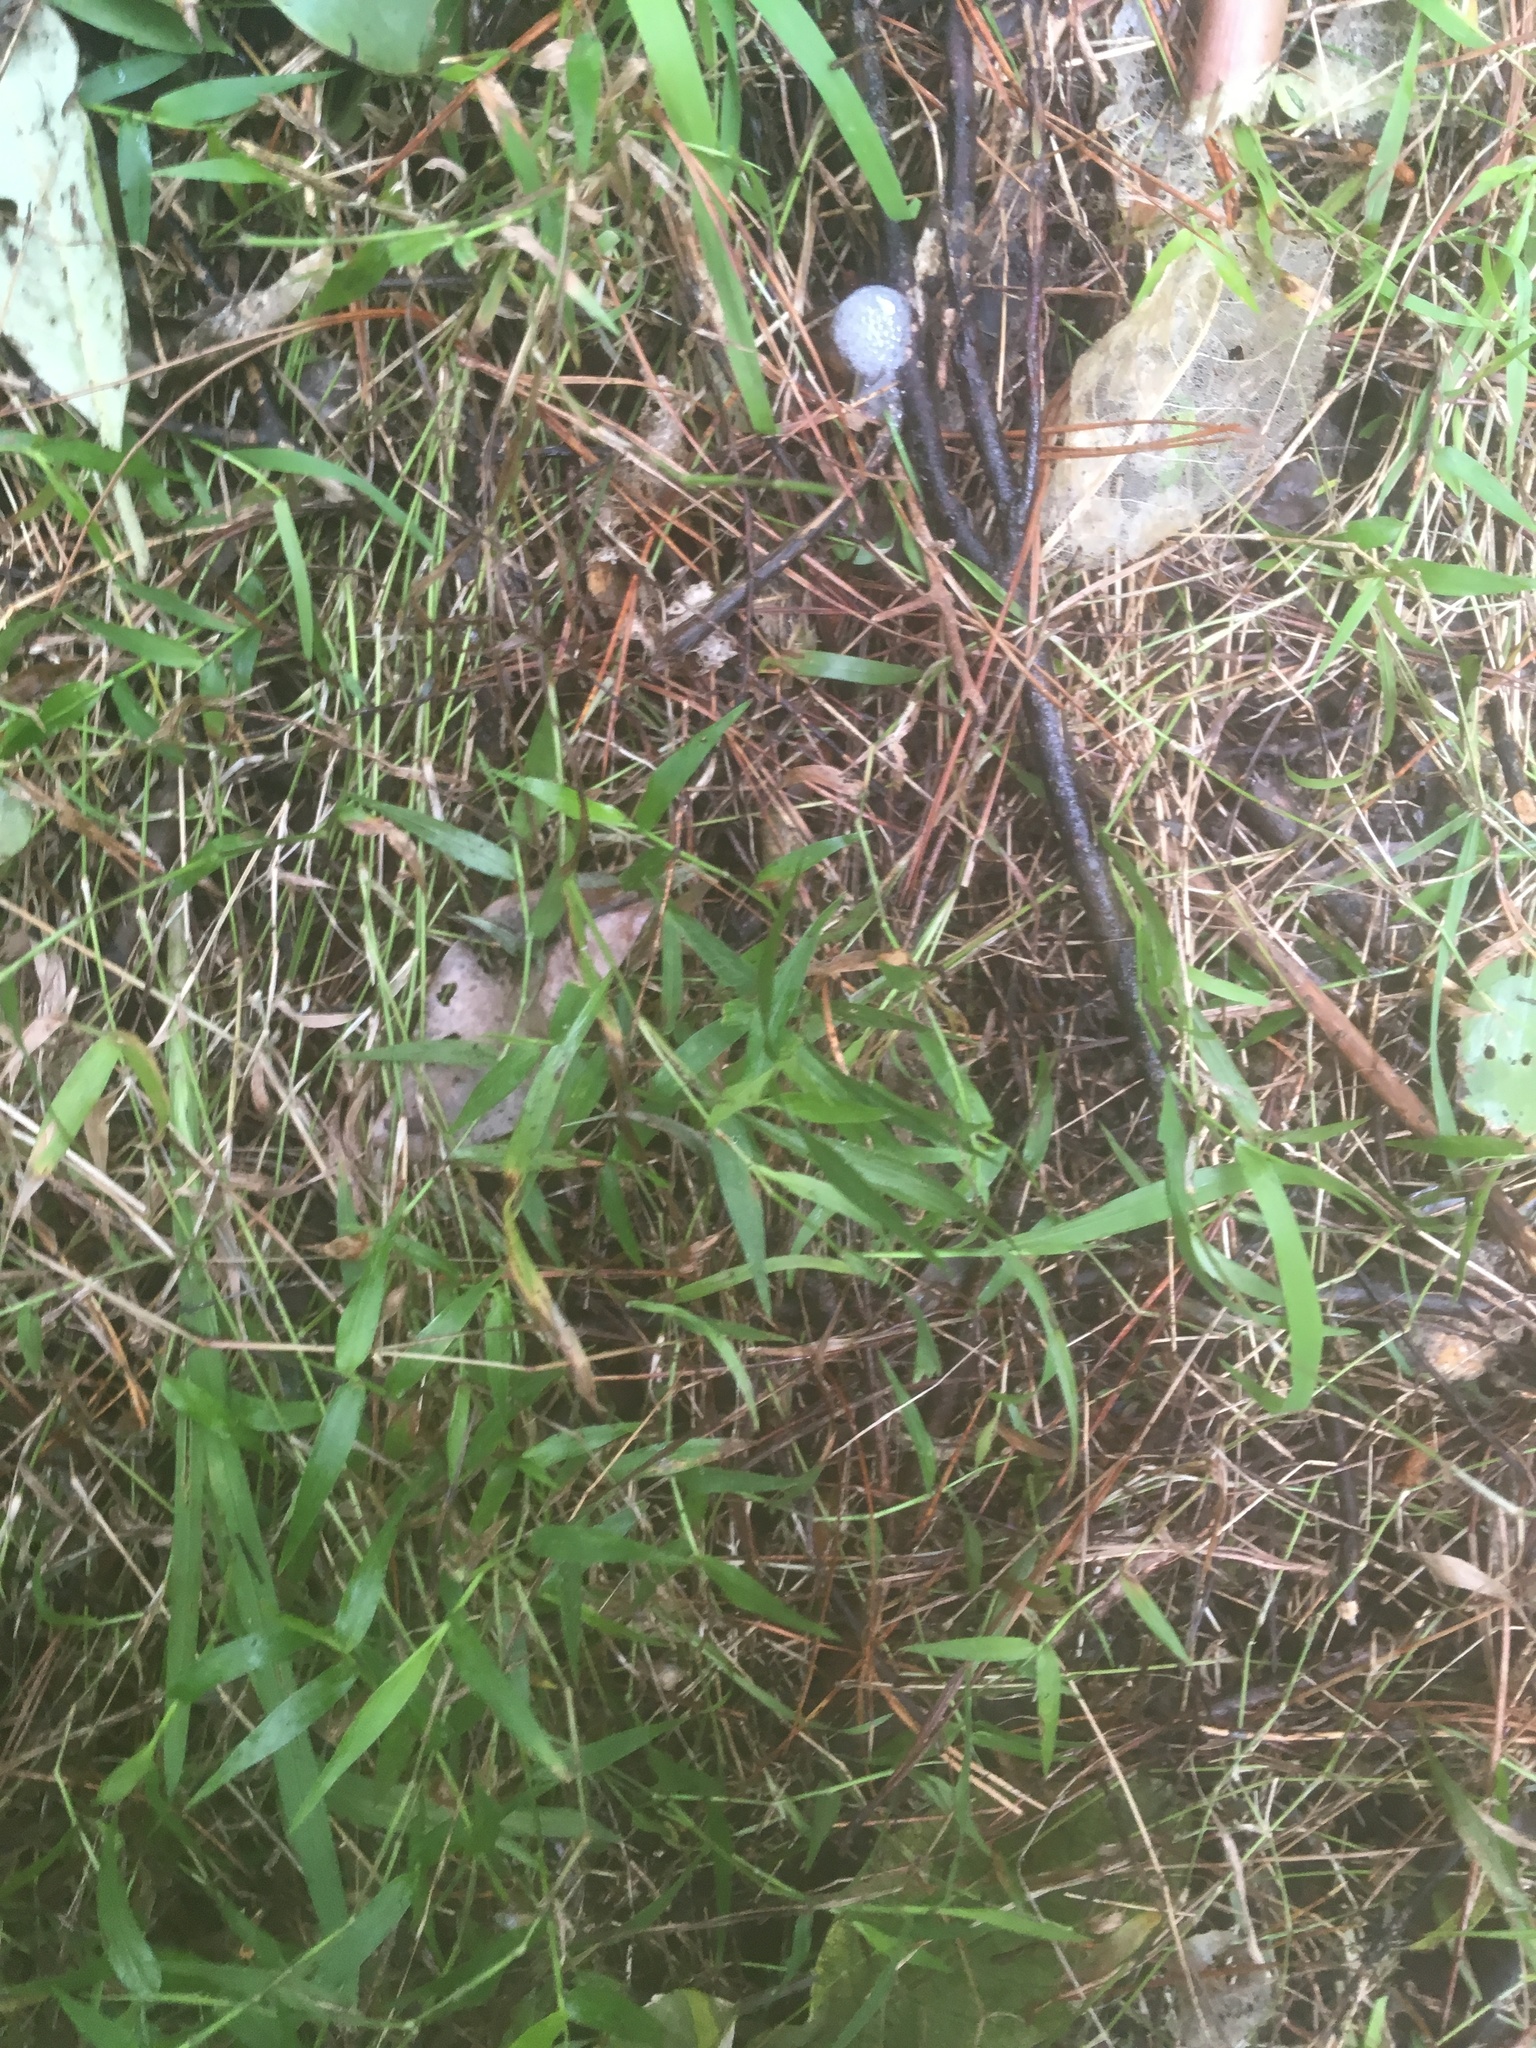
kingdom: Plantae
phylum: Tracheophyta
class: Liliopsida
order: Poales
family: Poaceae
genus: Oplismenus
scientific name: Oplismenus hirtellus
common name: Basketgrass
